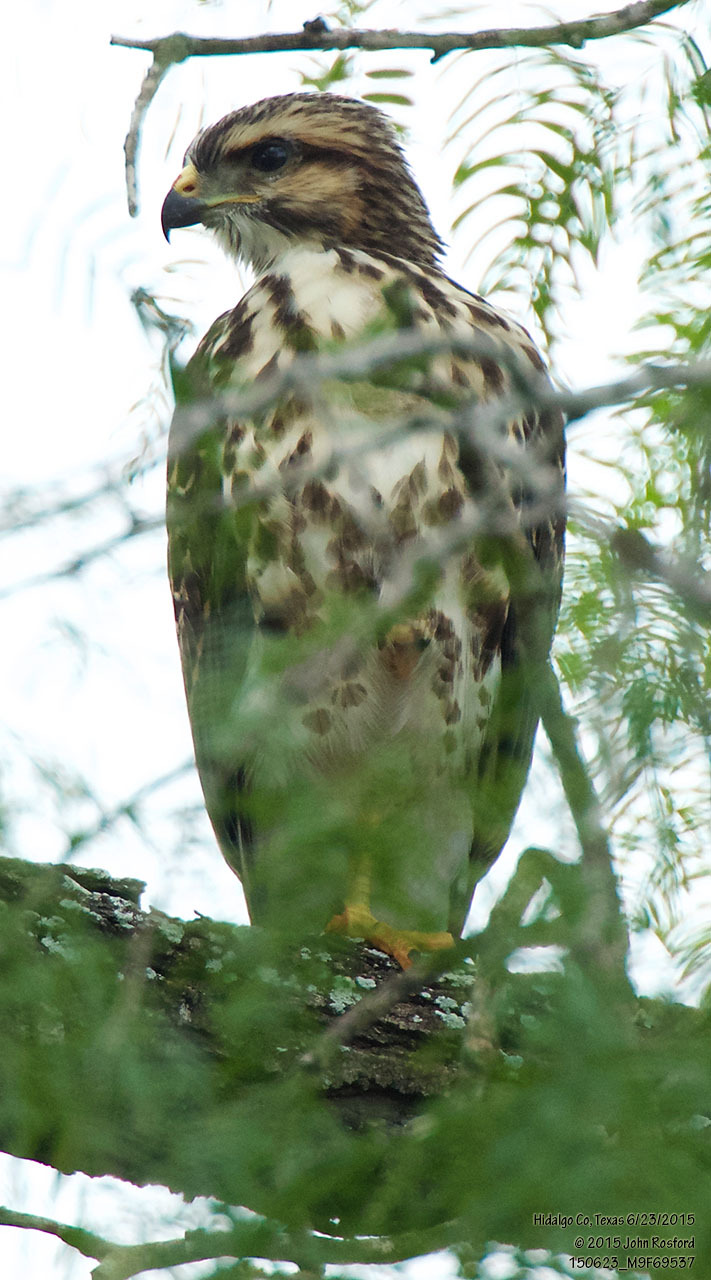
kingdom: Animalia
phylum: Chordata
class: Aves
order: Accipitriformes
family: Accipitridae
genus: Buteo
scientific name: Buteo nitidus
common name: Grey-lined hawk
